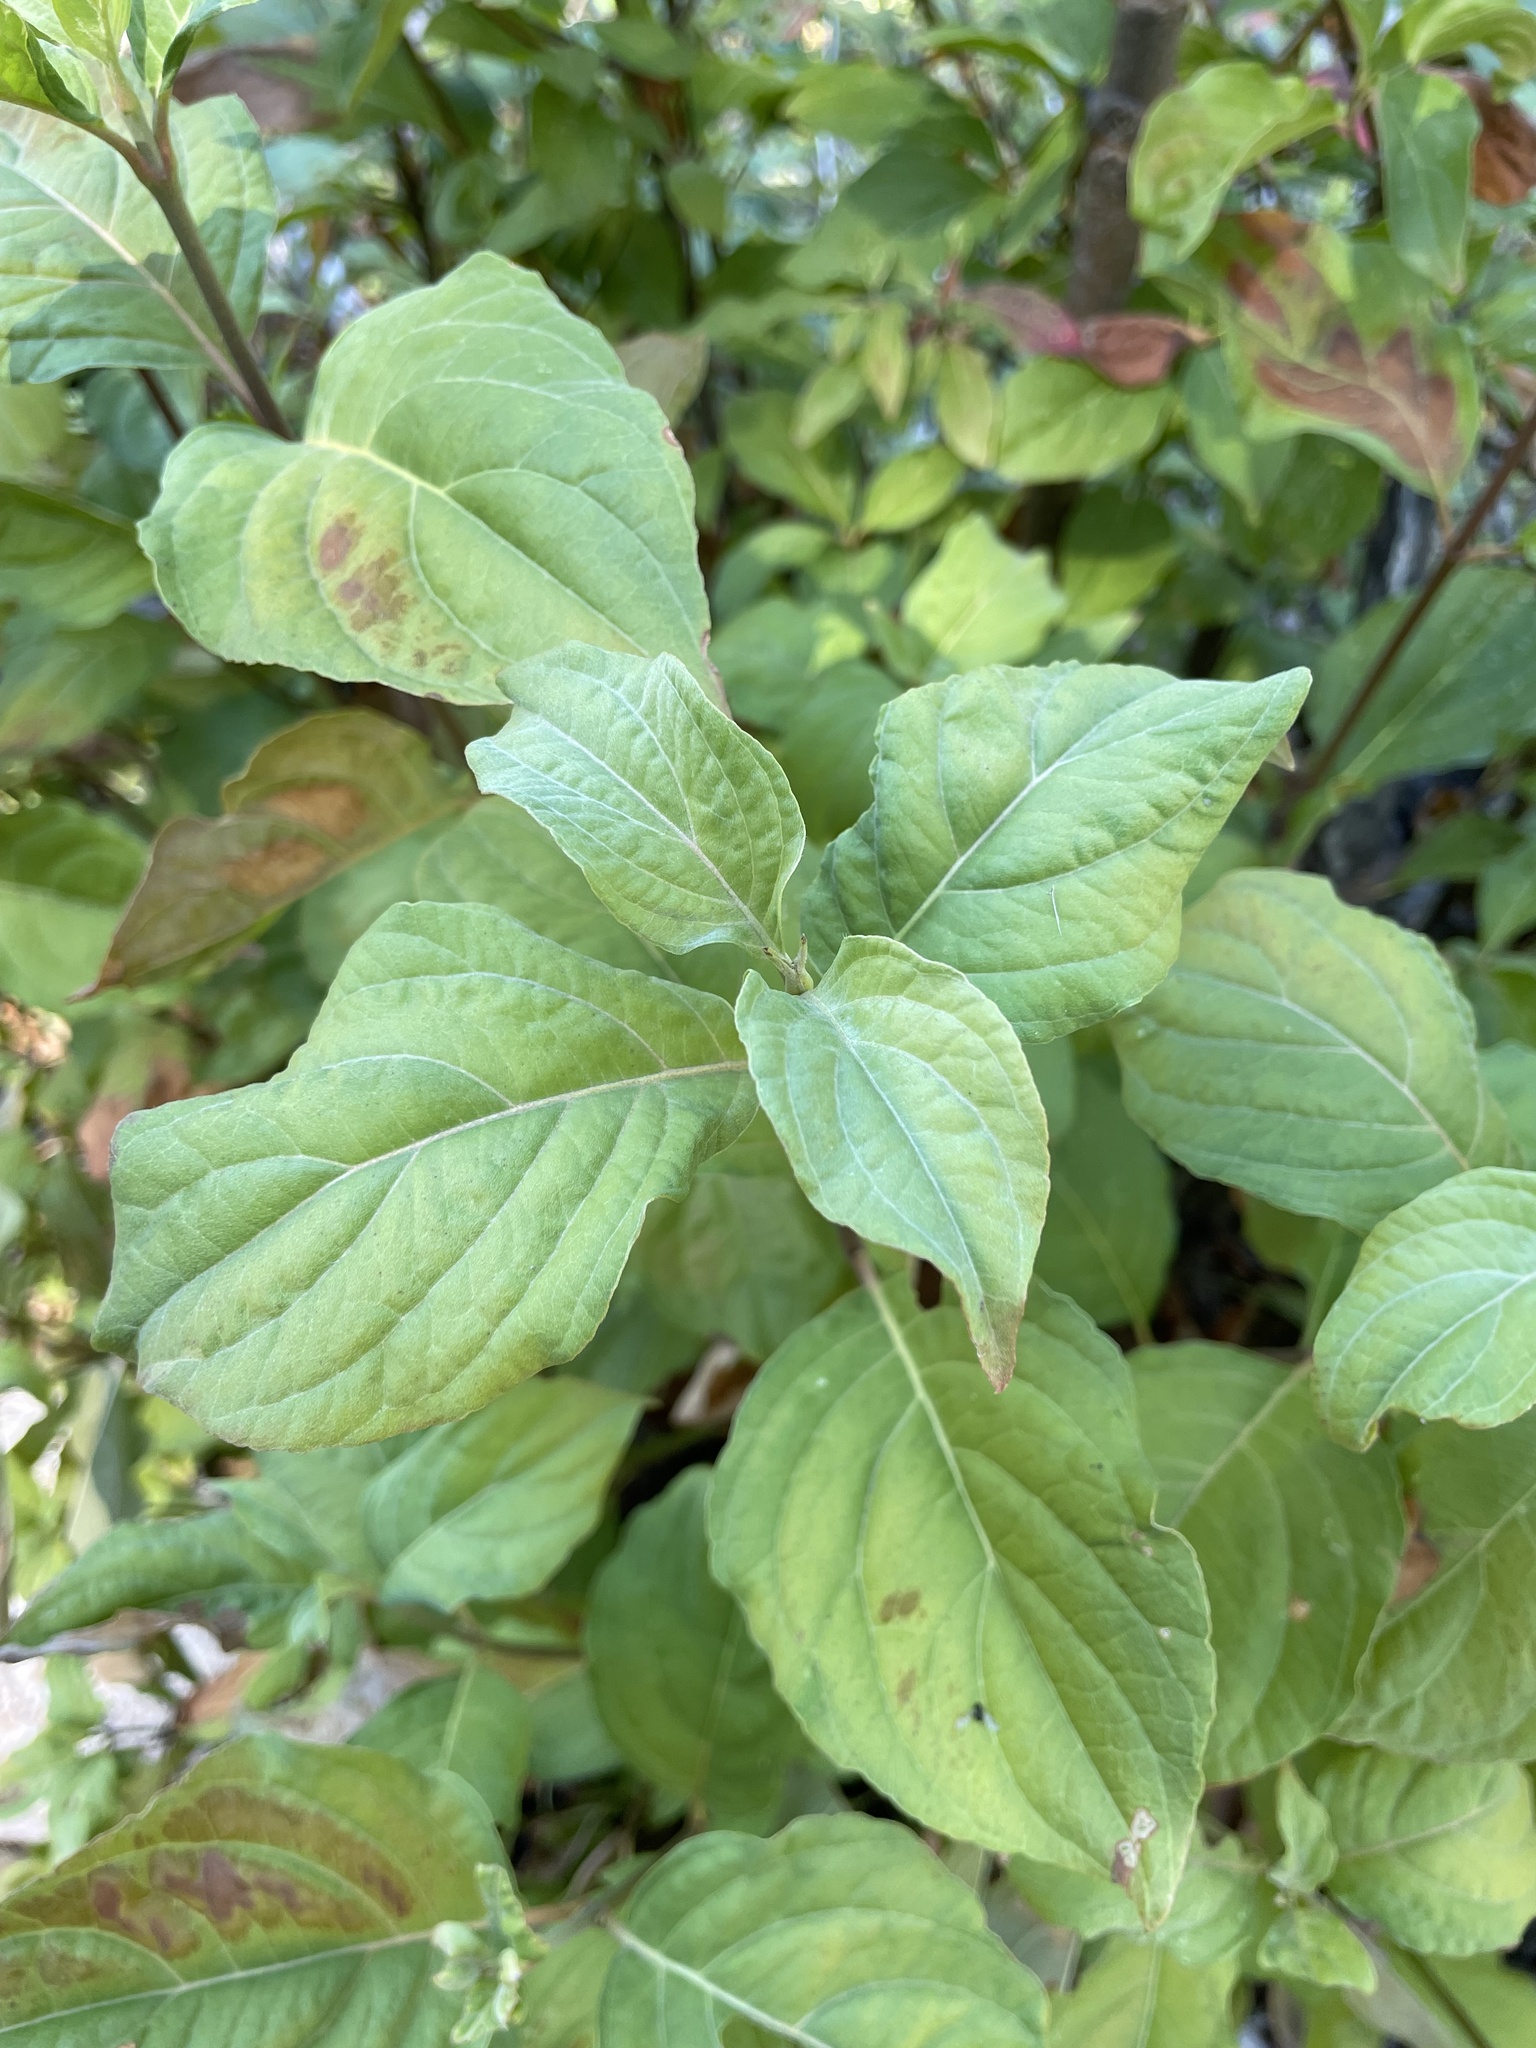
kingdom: Plantae
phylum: Tracheophyta
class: Magnoliopsida
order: Cornales
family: Cornaceae
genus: Cornus
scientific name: Cornus nuttallii
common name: Pacific dogwood
